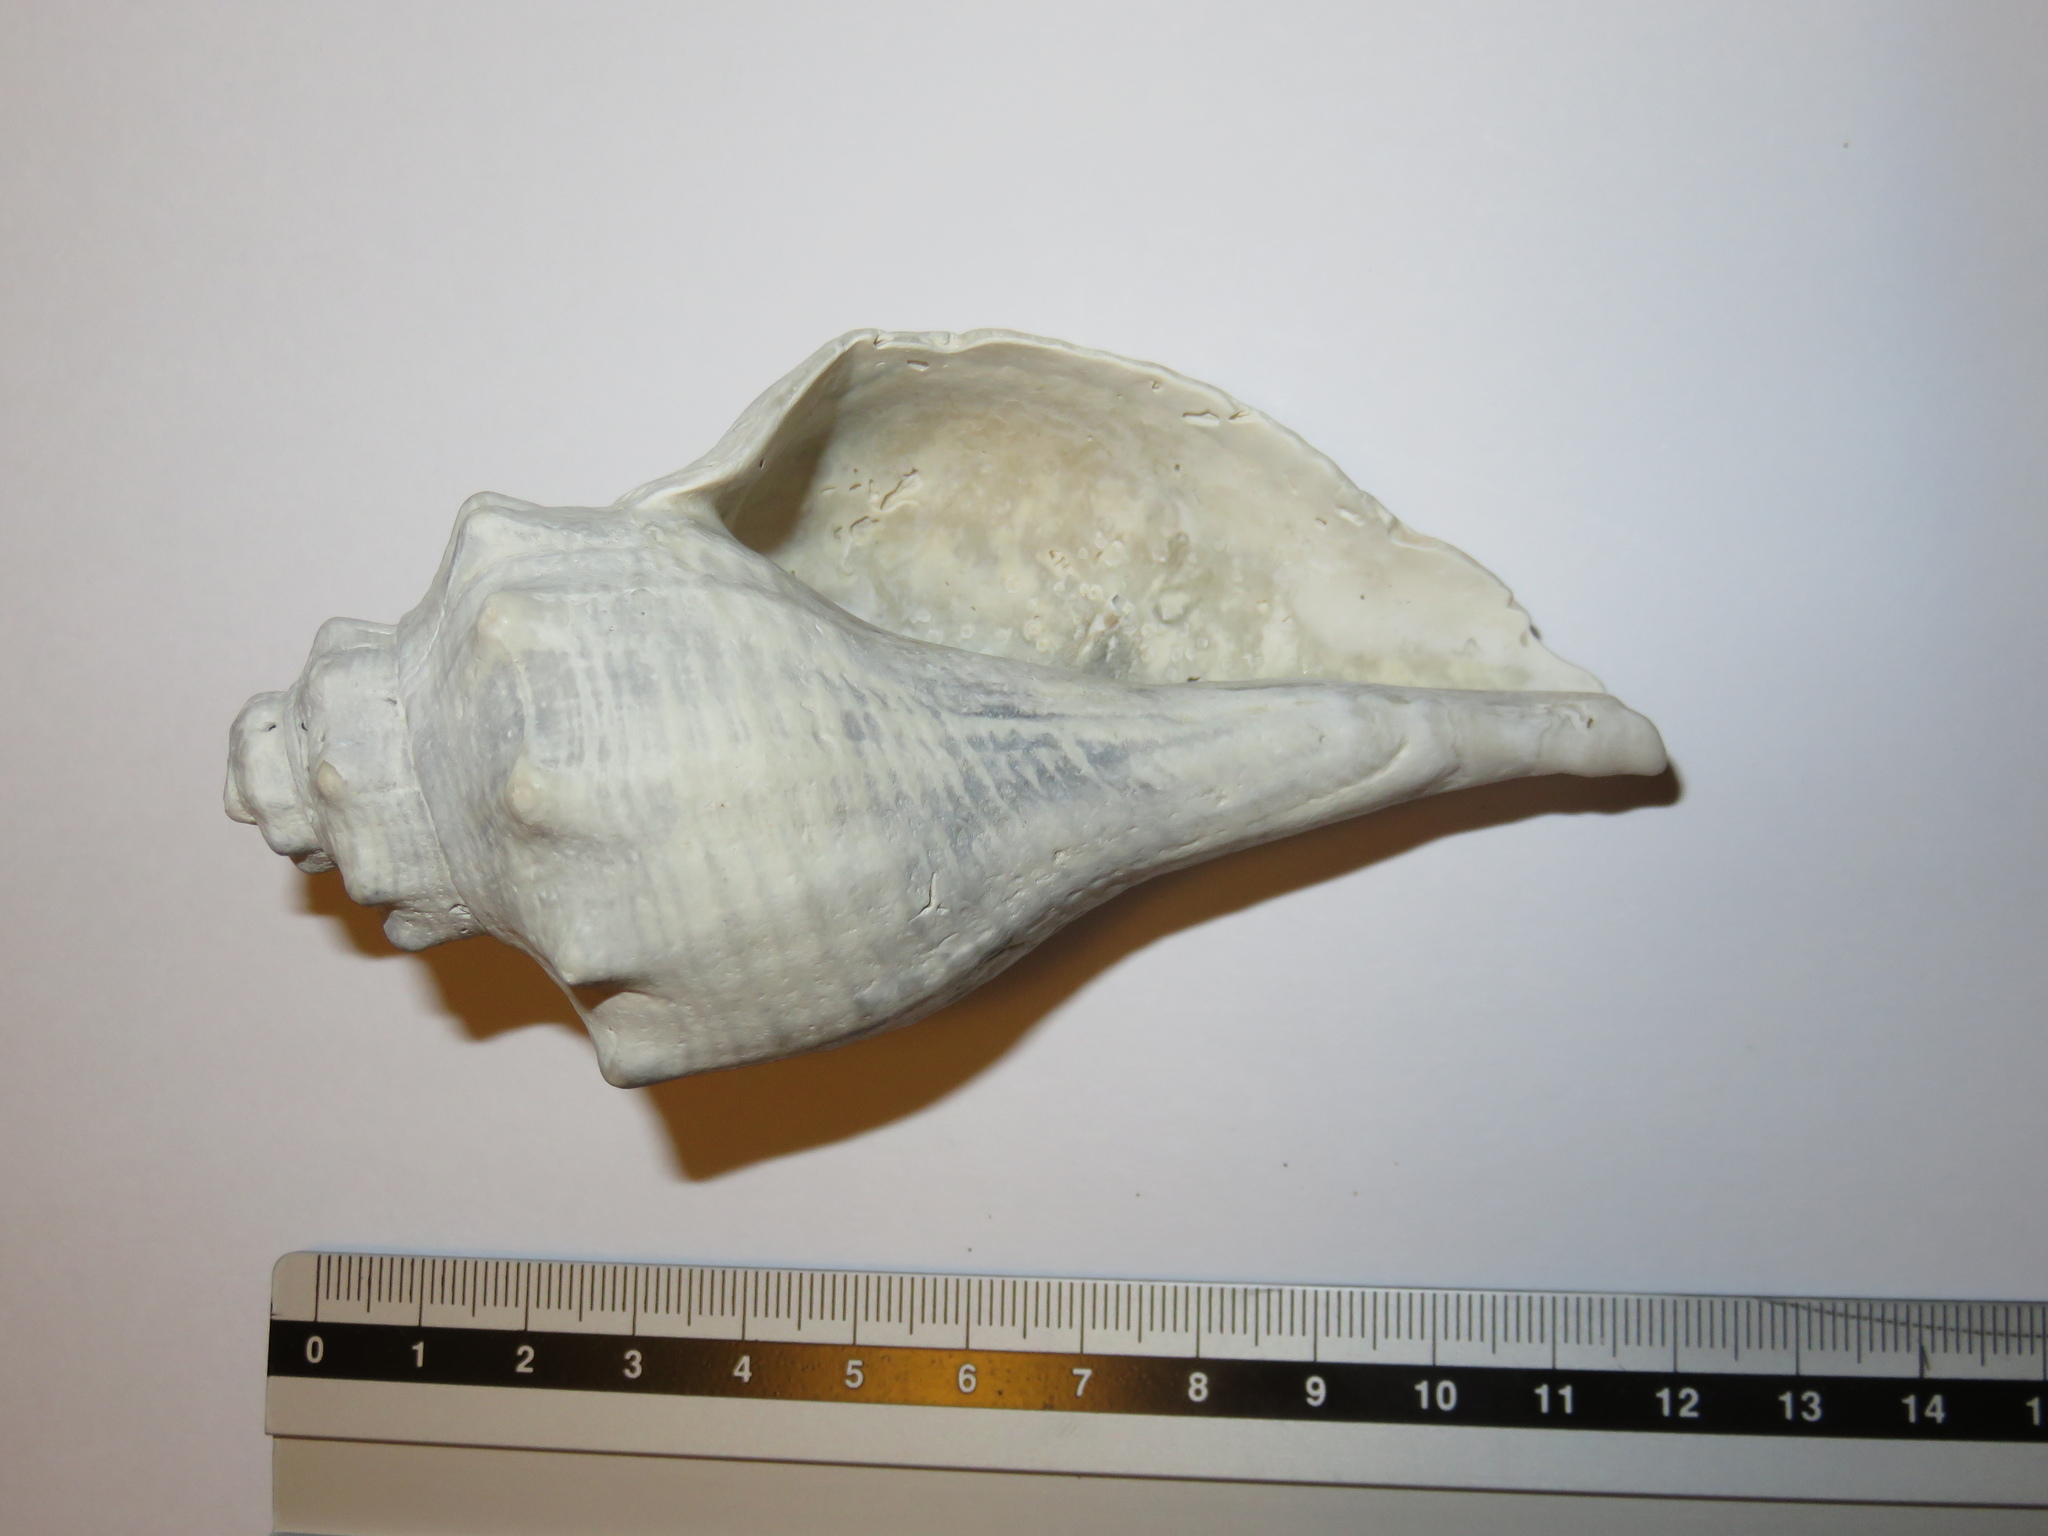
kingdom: Animalia
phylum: Mollusca
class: Gastropoda
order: Neogastropoda
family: Melongenidae
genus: Hemifusus
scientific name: Hemifusus tuba
